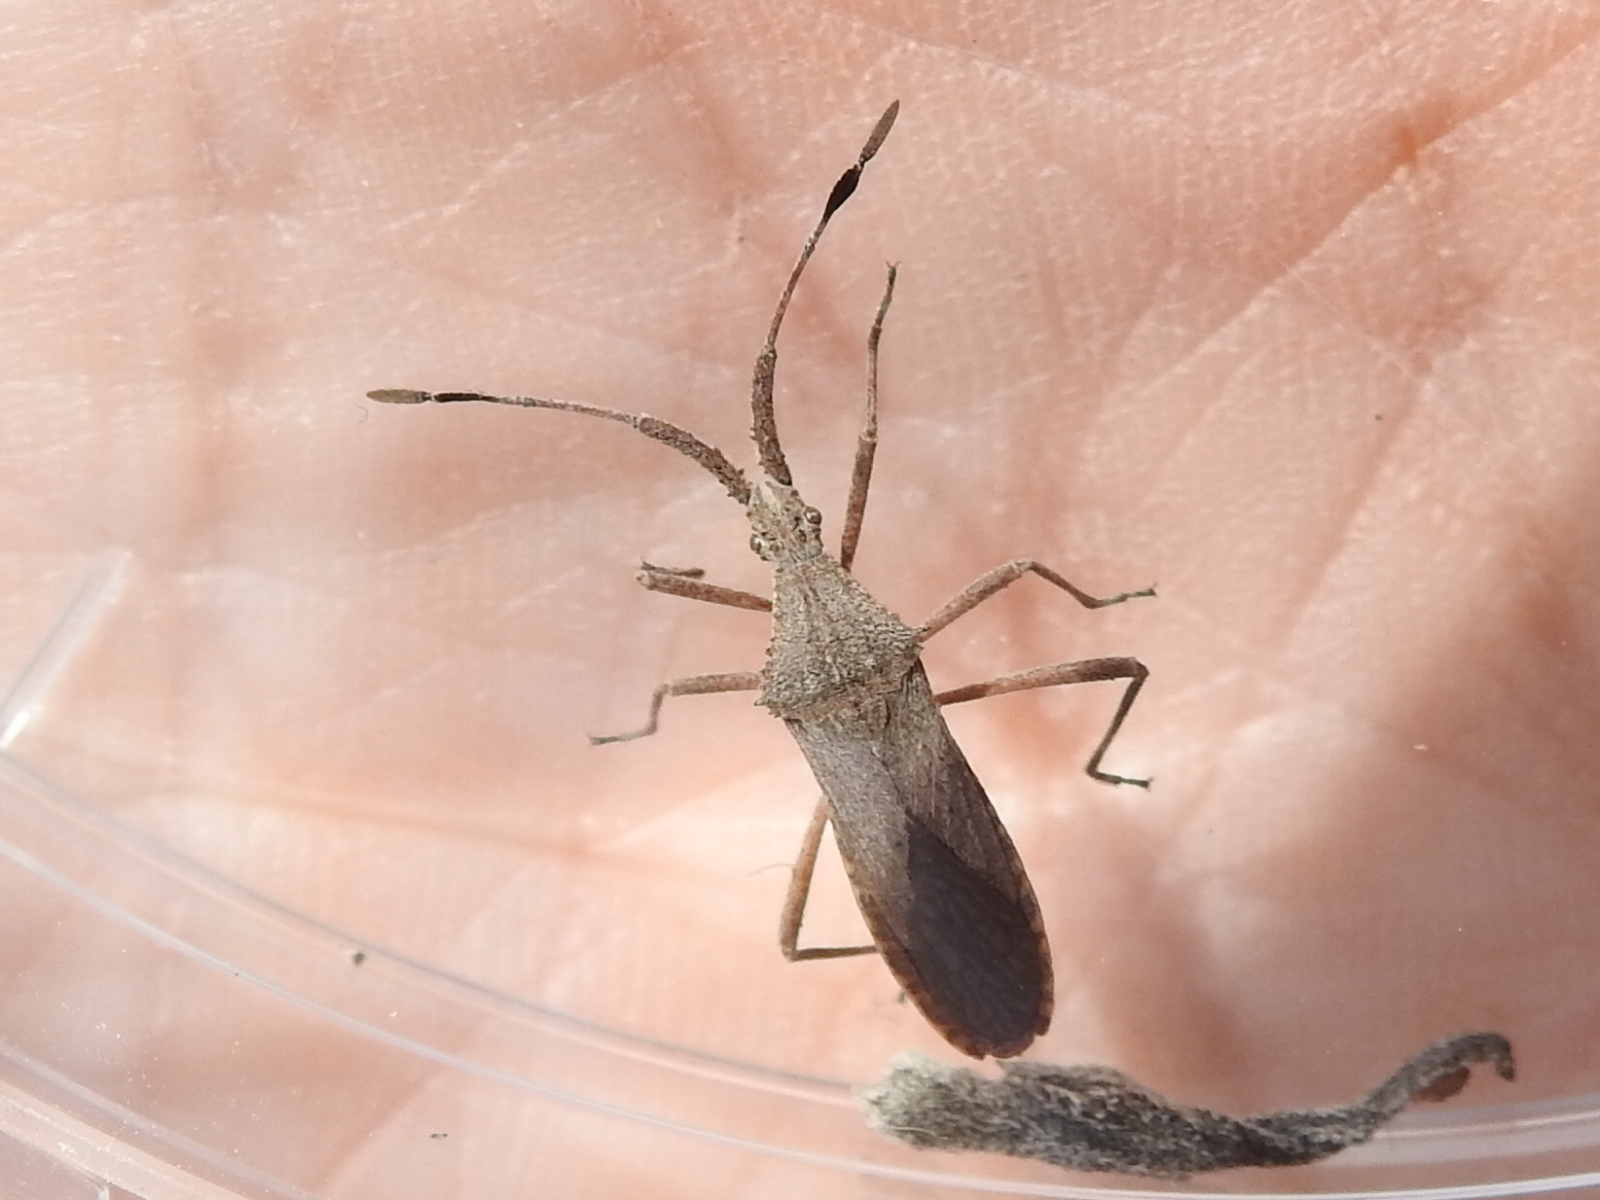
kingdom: Animalia
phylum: Arthropoda
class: Insecta
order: Hemiptera
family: Coreidae
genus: Chariesterus
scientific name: Chariesterus antennator
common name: Flat horned coreid
